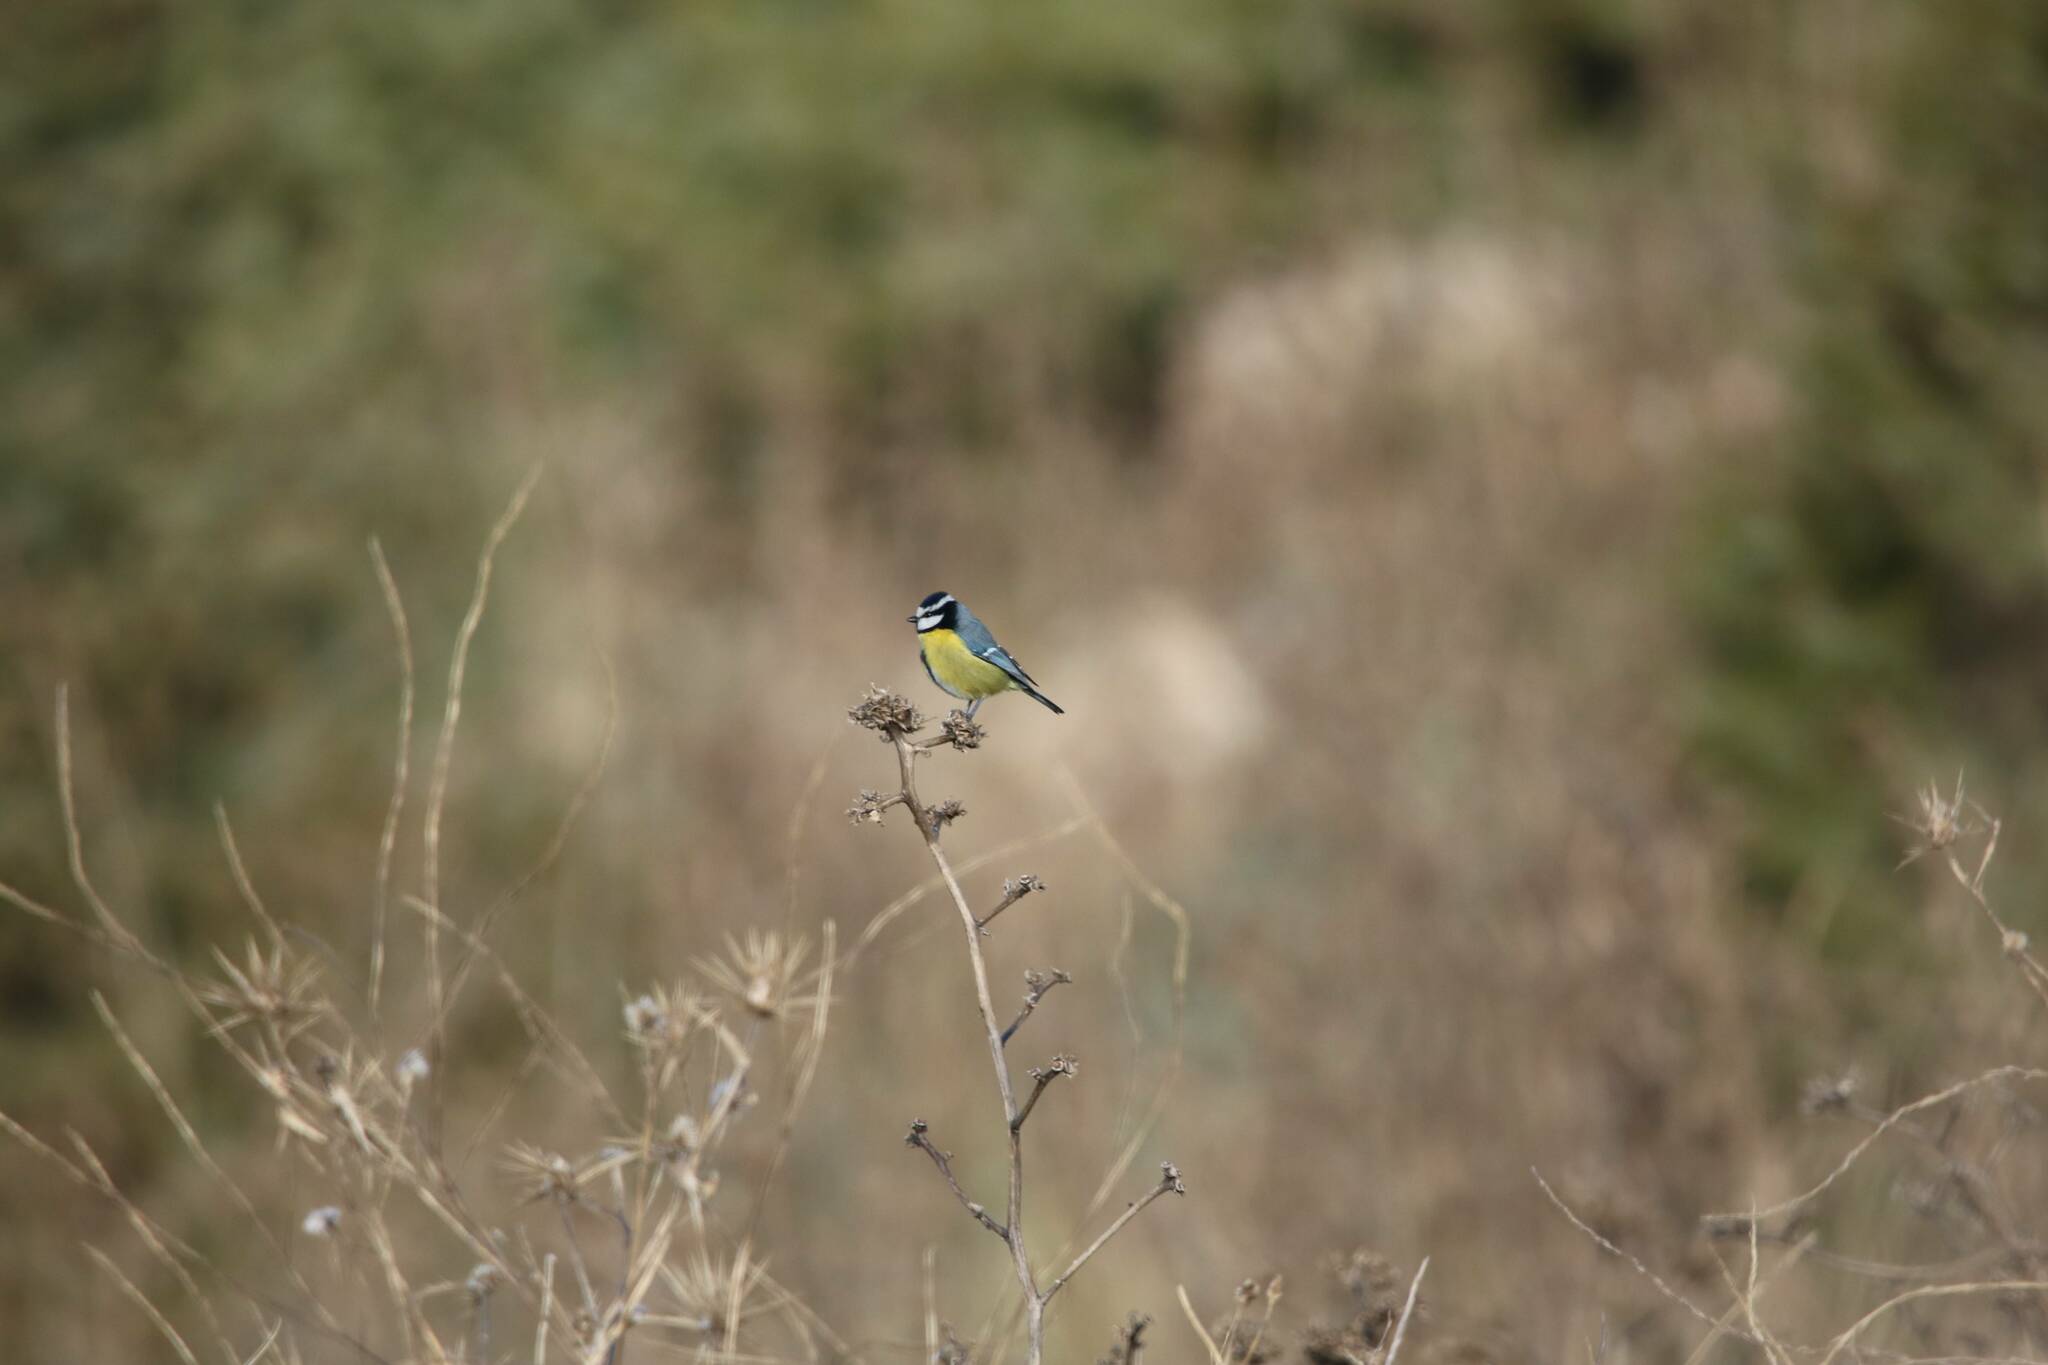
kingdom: Animalia
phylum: Chordata
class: Aves
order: Passeriformes
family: Paridae
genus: Cyanistes
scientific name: Cyanistes teneriffae
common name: African blue tit
